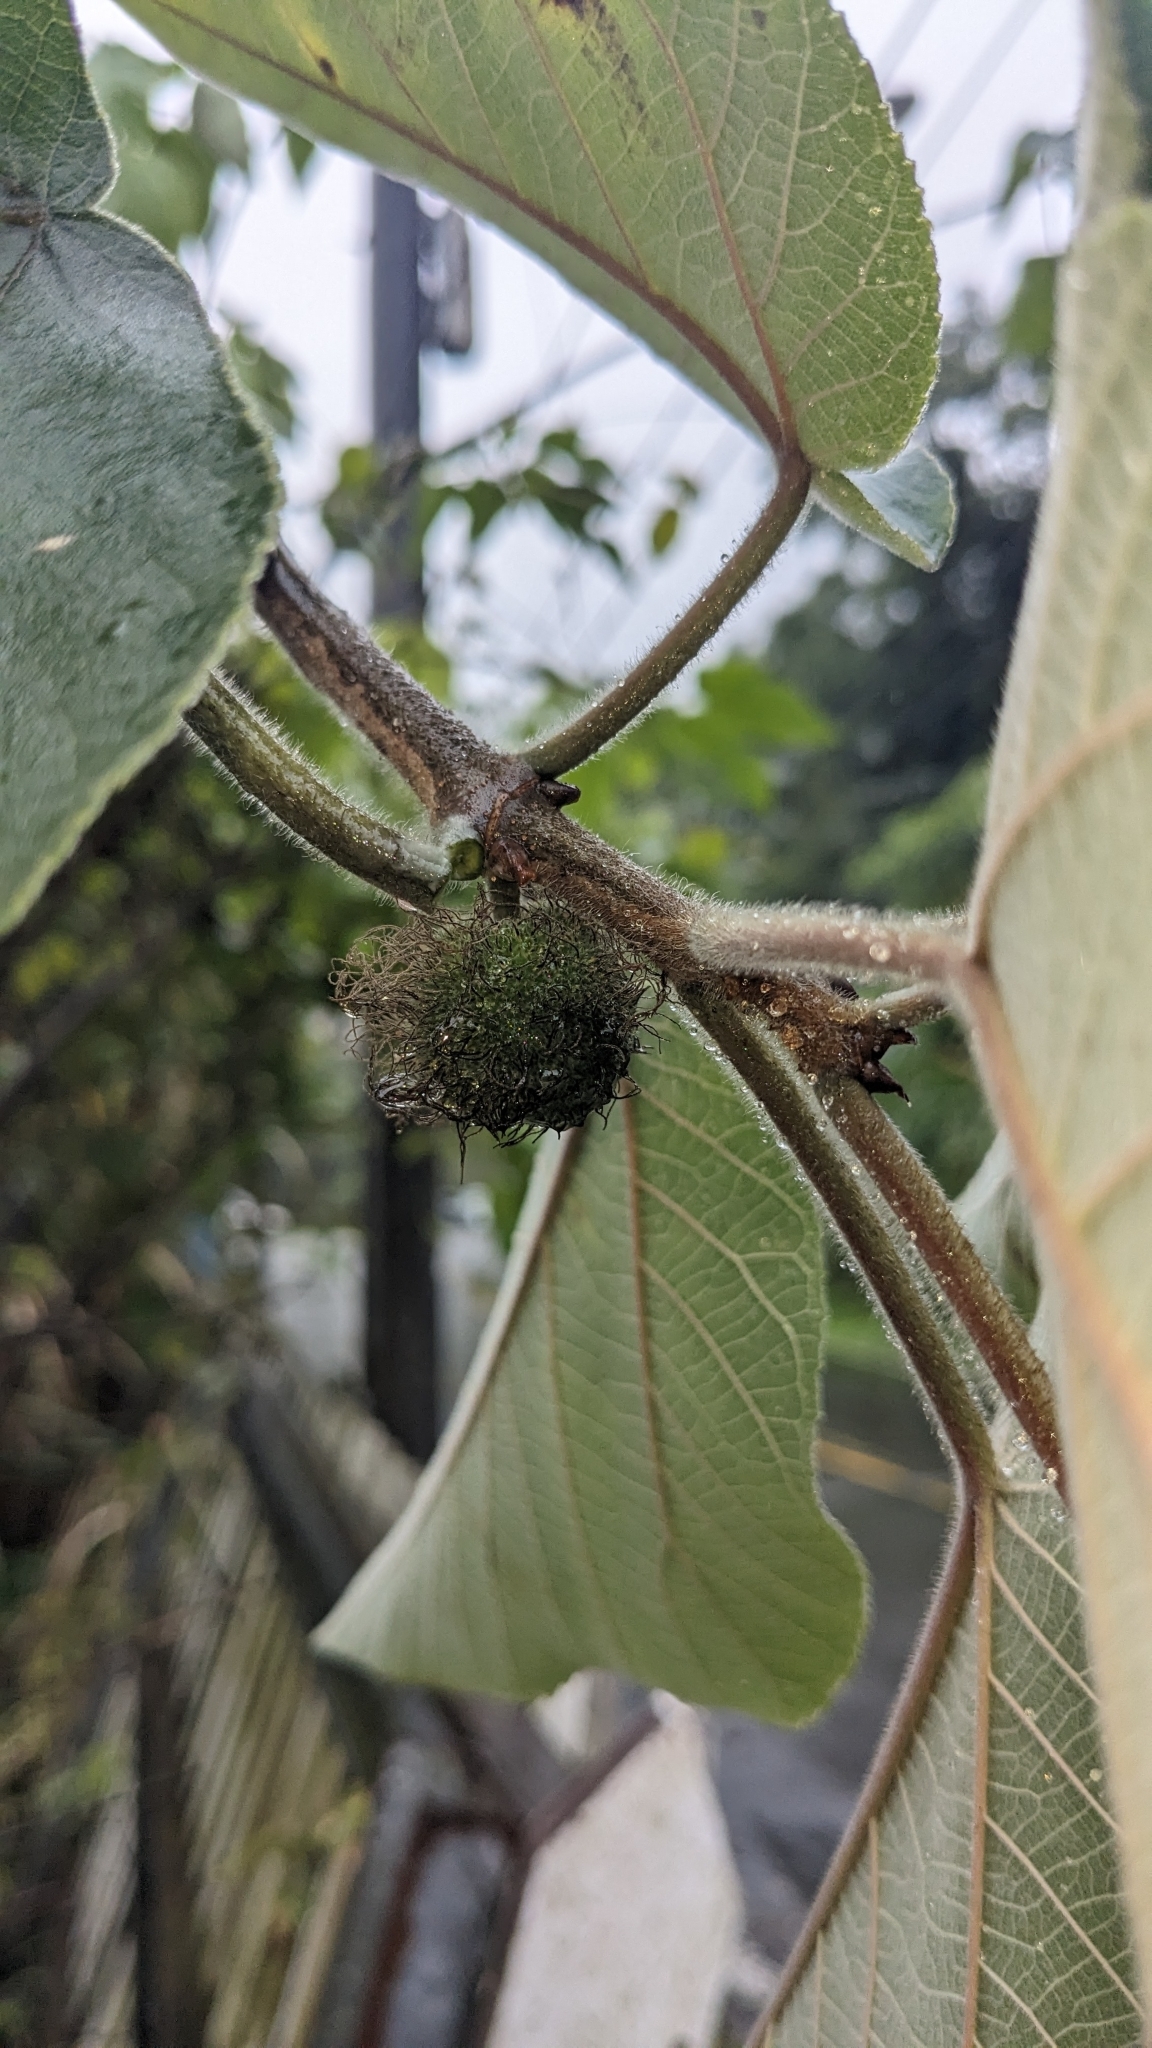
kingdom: Plantae
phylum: Tracheophyta
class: Magnoliopsida
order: Rosales
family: Moraceae
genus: Broussonetia
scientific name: Broussonetia papyrifera
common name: Paper mulberry
